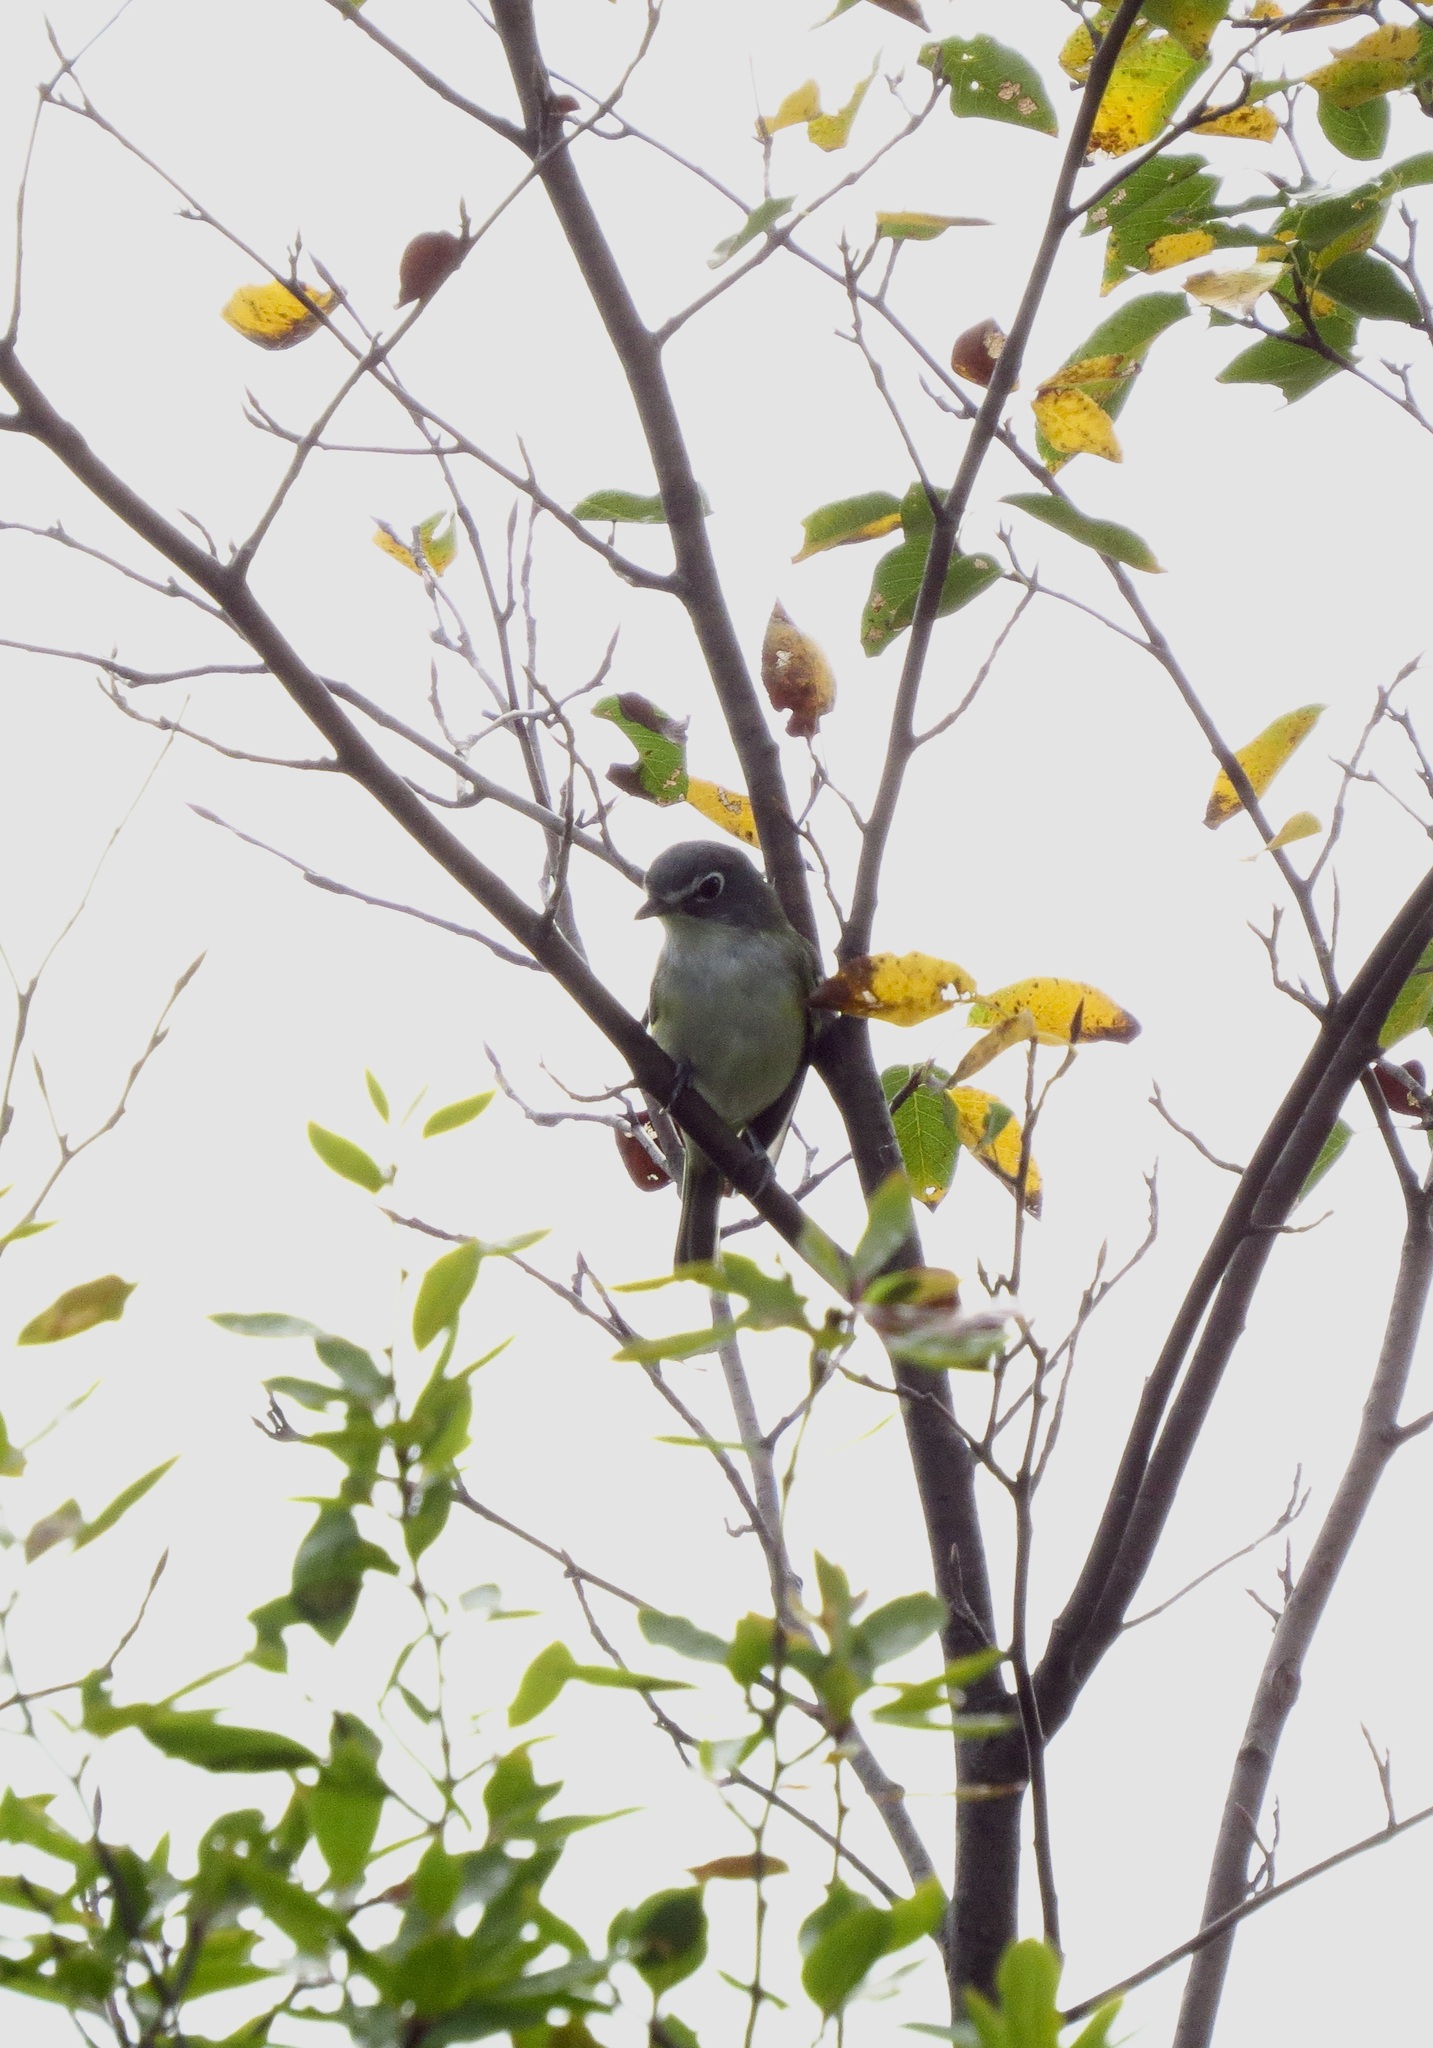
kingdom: Animalia
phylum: Chordata
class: Aves
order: Passeriformes
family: Vireonidae
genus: Vireo
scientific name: Vireo solitarius
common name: Blue-headed vireo
